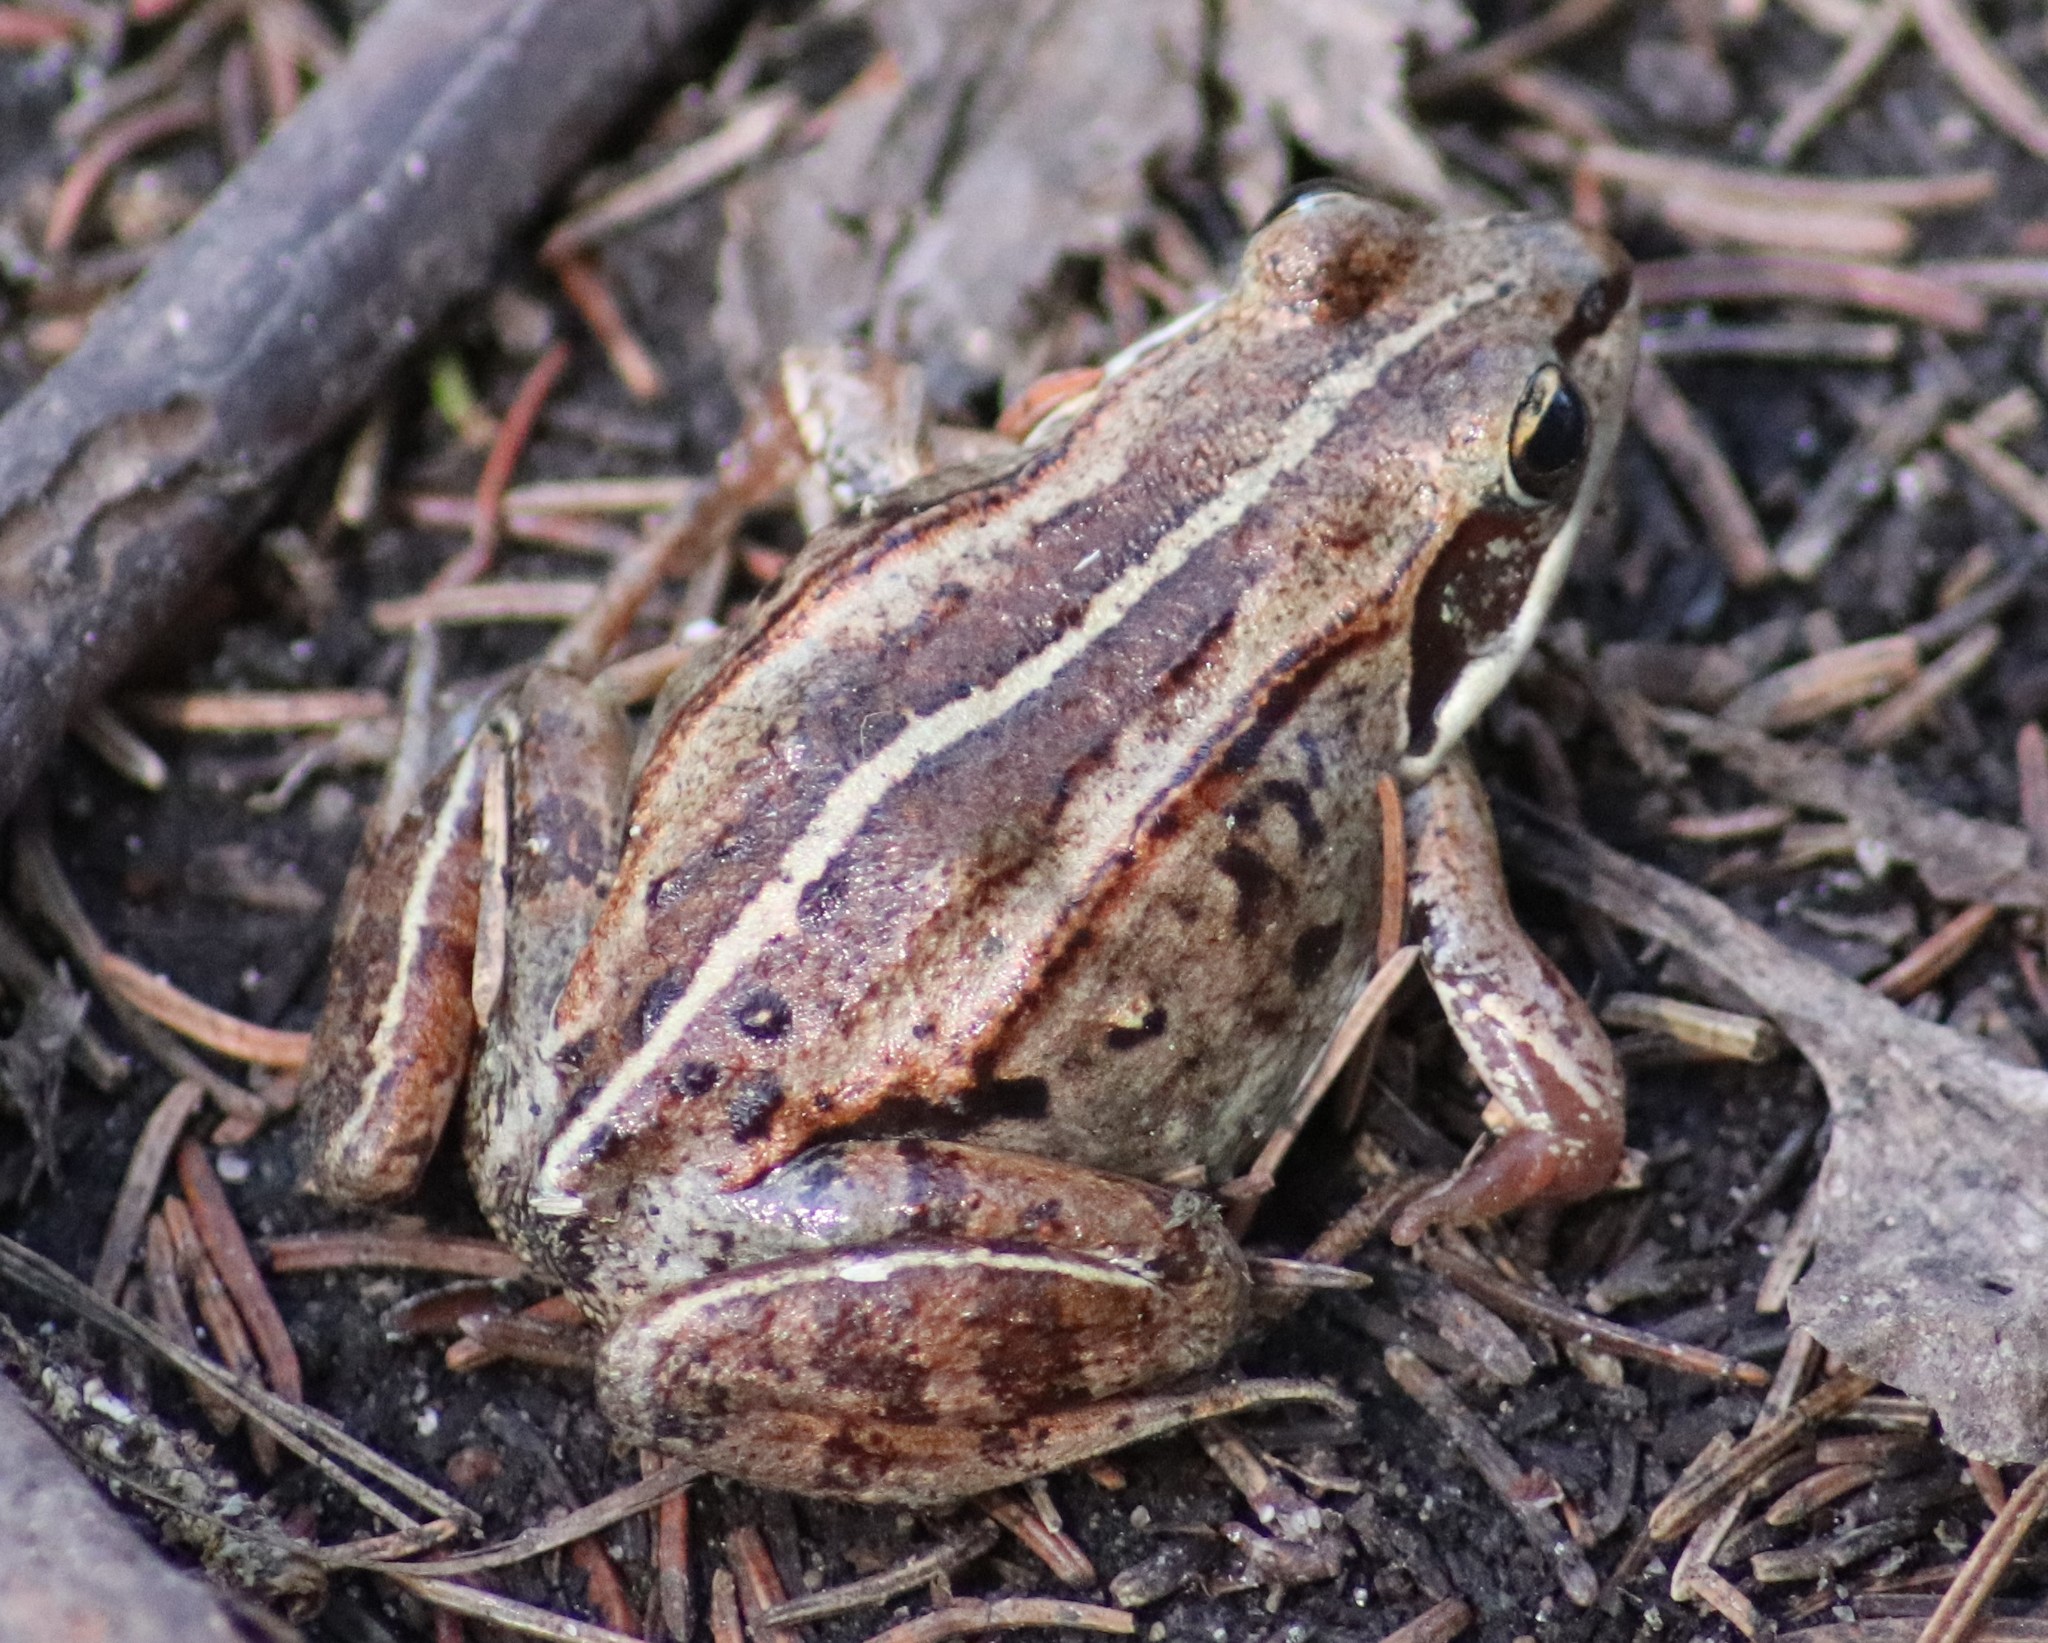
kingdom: Animalia
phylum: Chordata
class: Amphibia
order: Anura
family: Ranidae
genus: Lithobates
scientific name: Lithobates sylvaticus
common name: Wood frog
